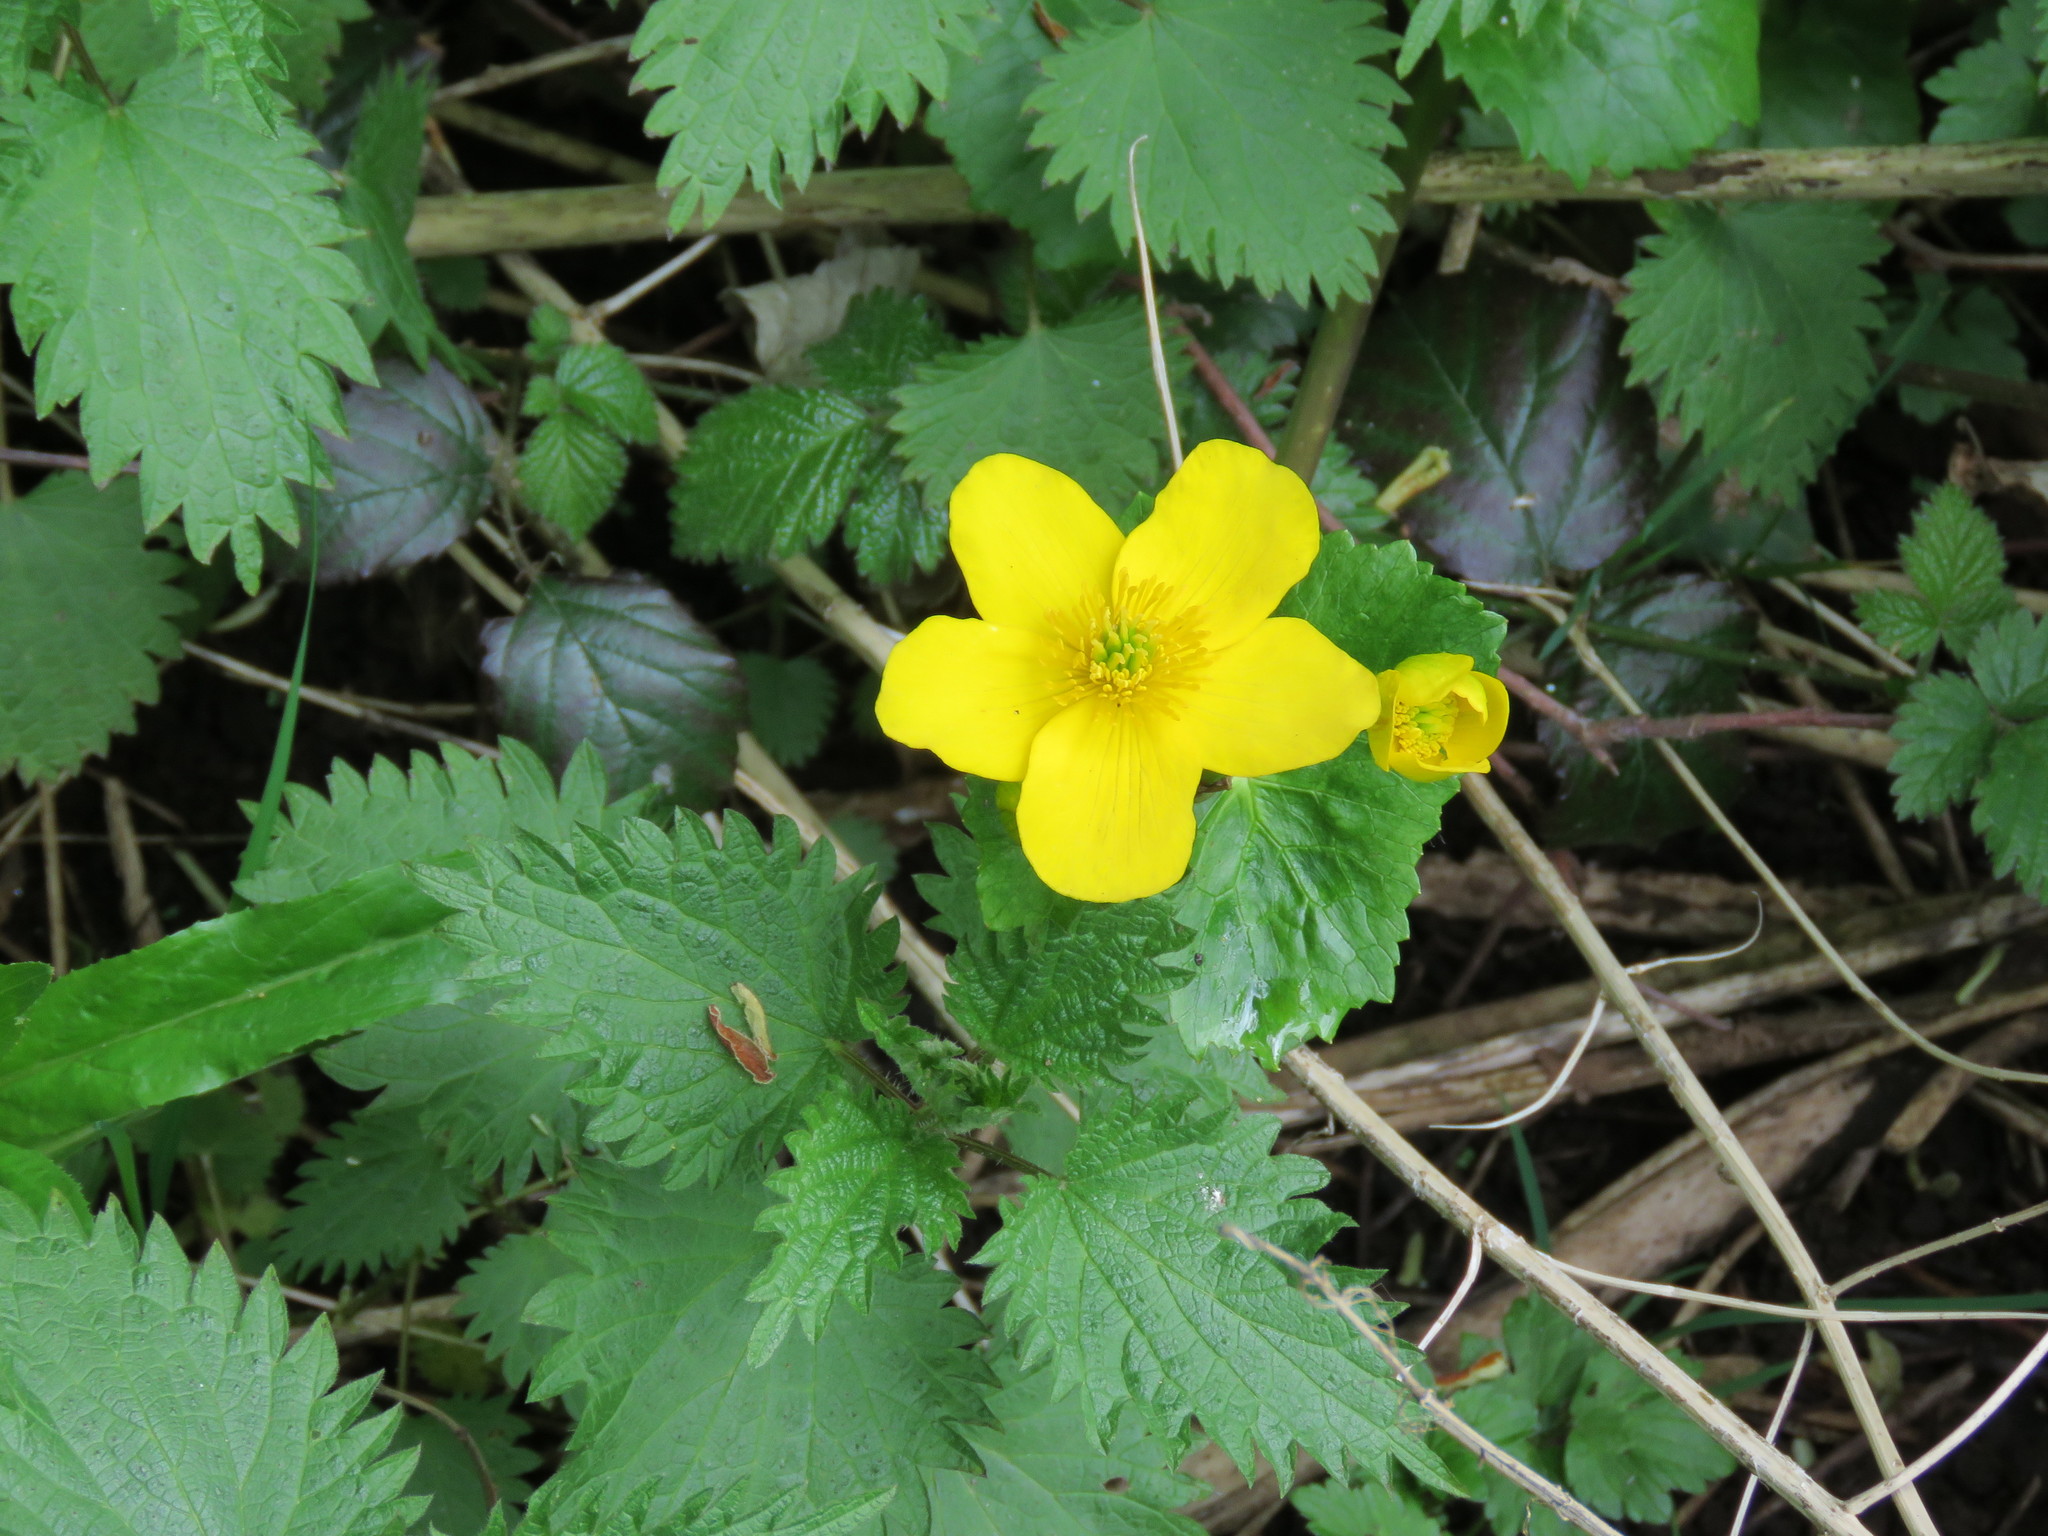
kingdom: Plantae
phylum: Tracheophyta
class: Magnoliopsida
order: Rosales
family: Rosaceae
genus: Rubus
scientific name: Rubus
